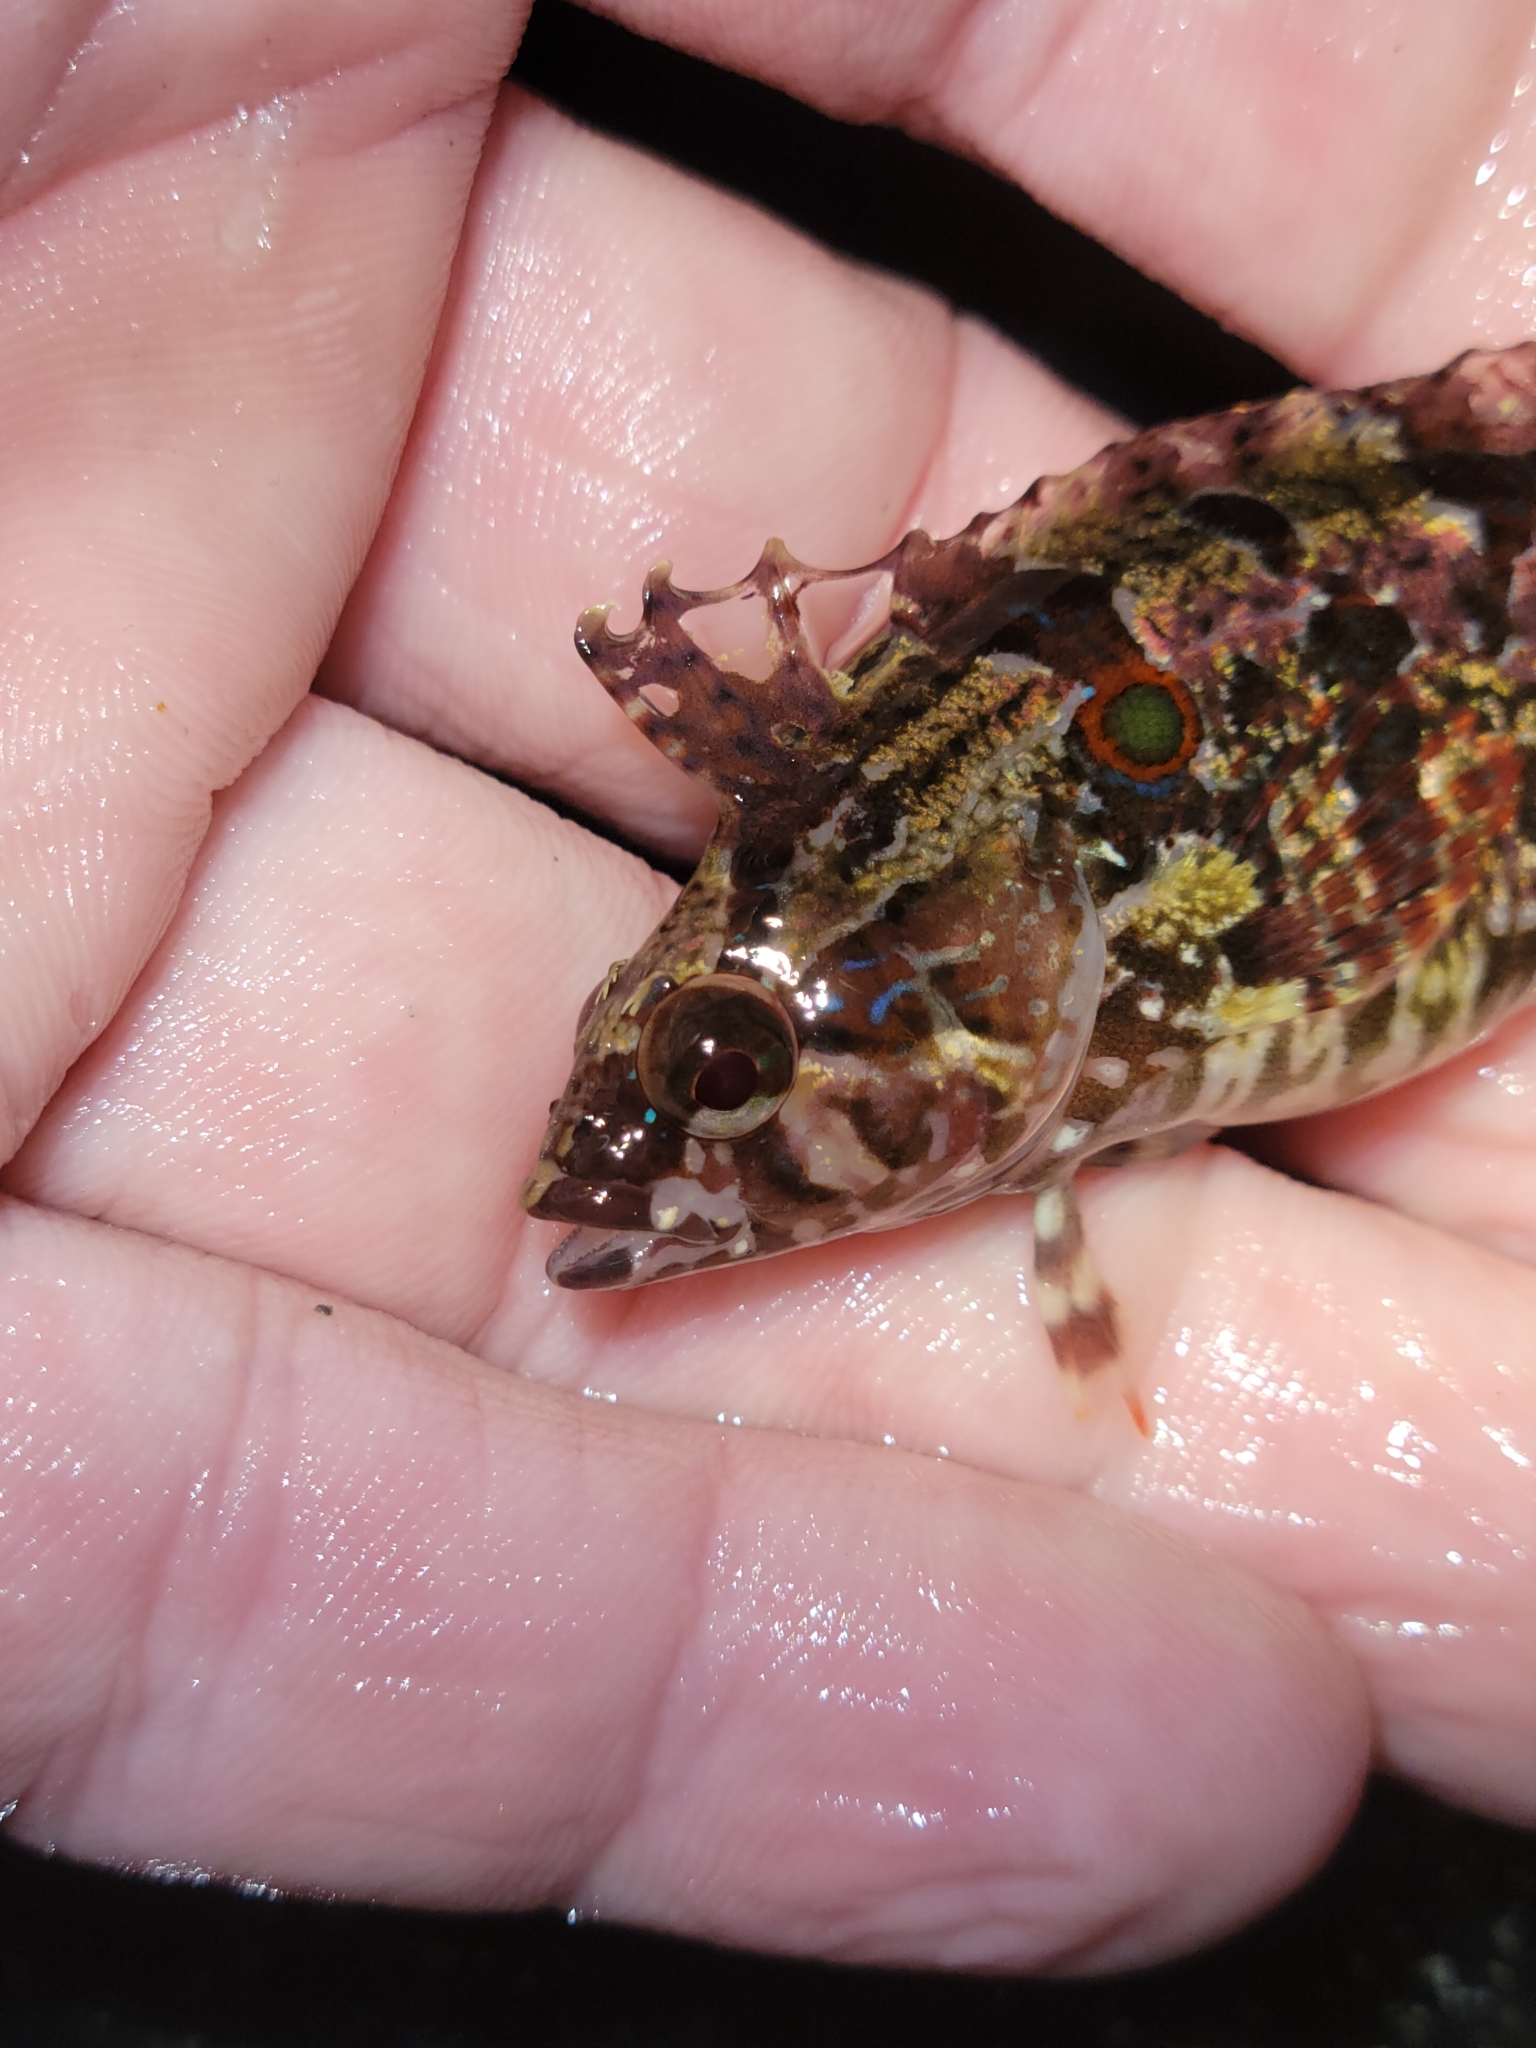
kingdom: Animalia
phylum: Chordata
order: Perciformes
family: Clinidae
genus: Gibbonsia
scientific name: Gibbonsia elegans
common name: Spotted kelpfish
